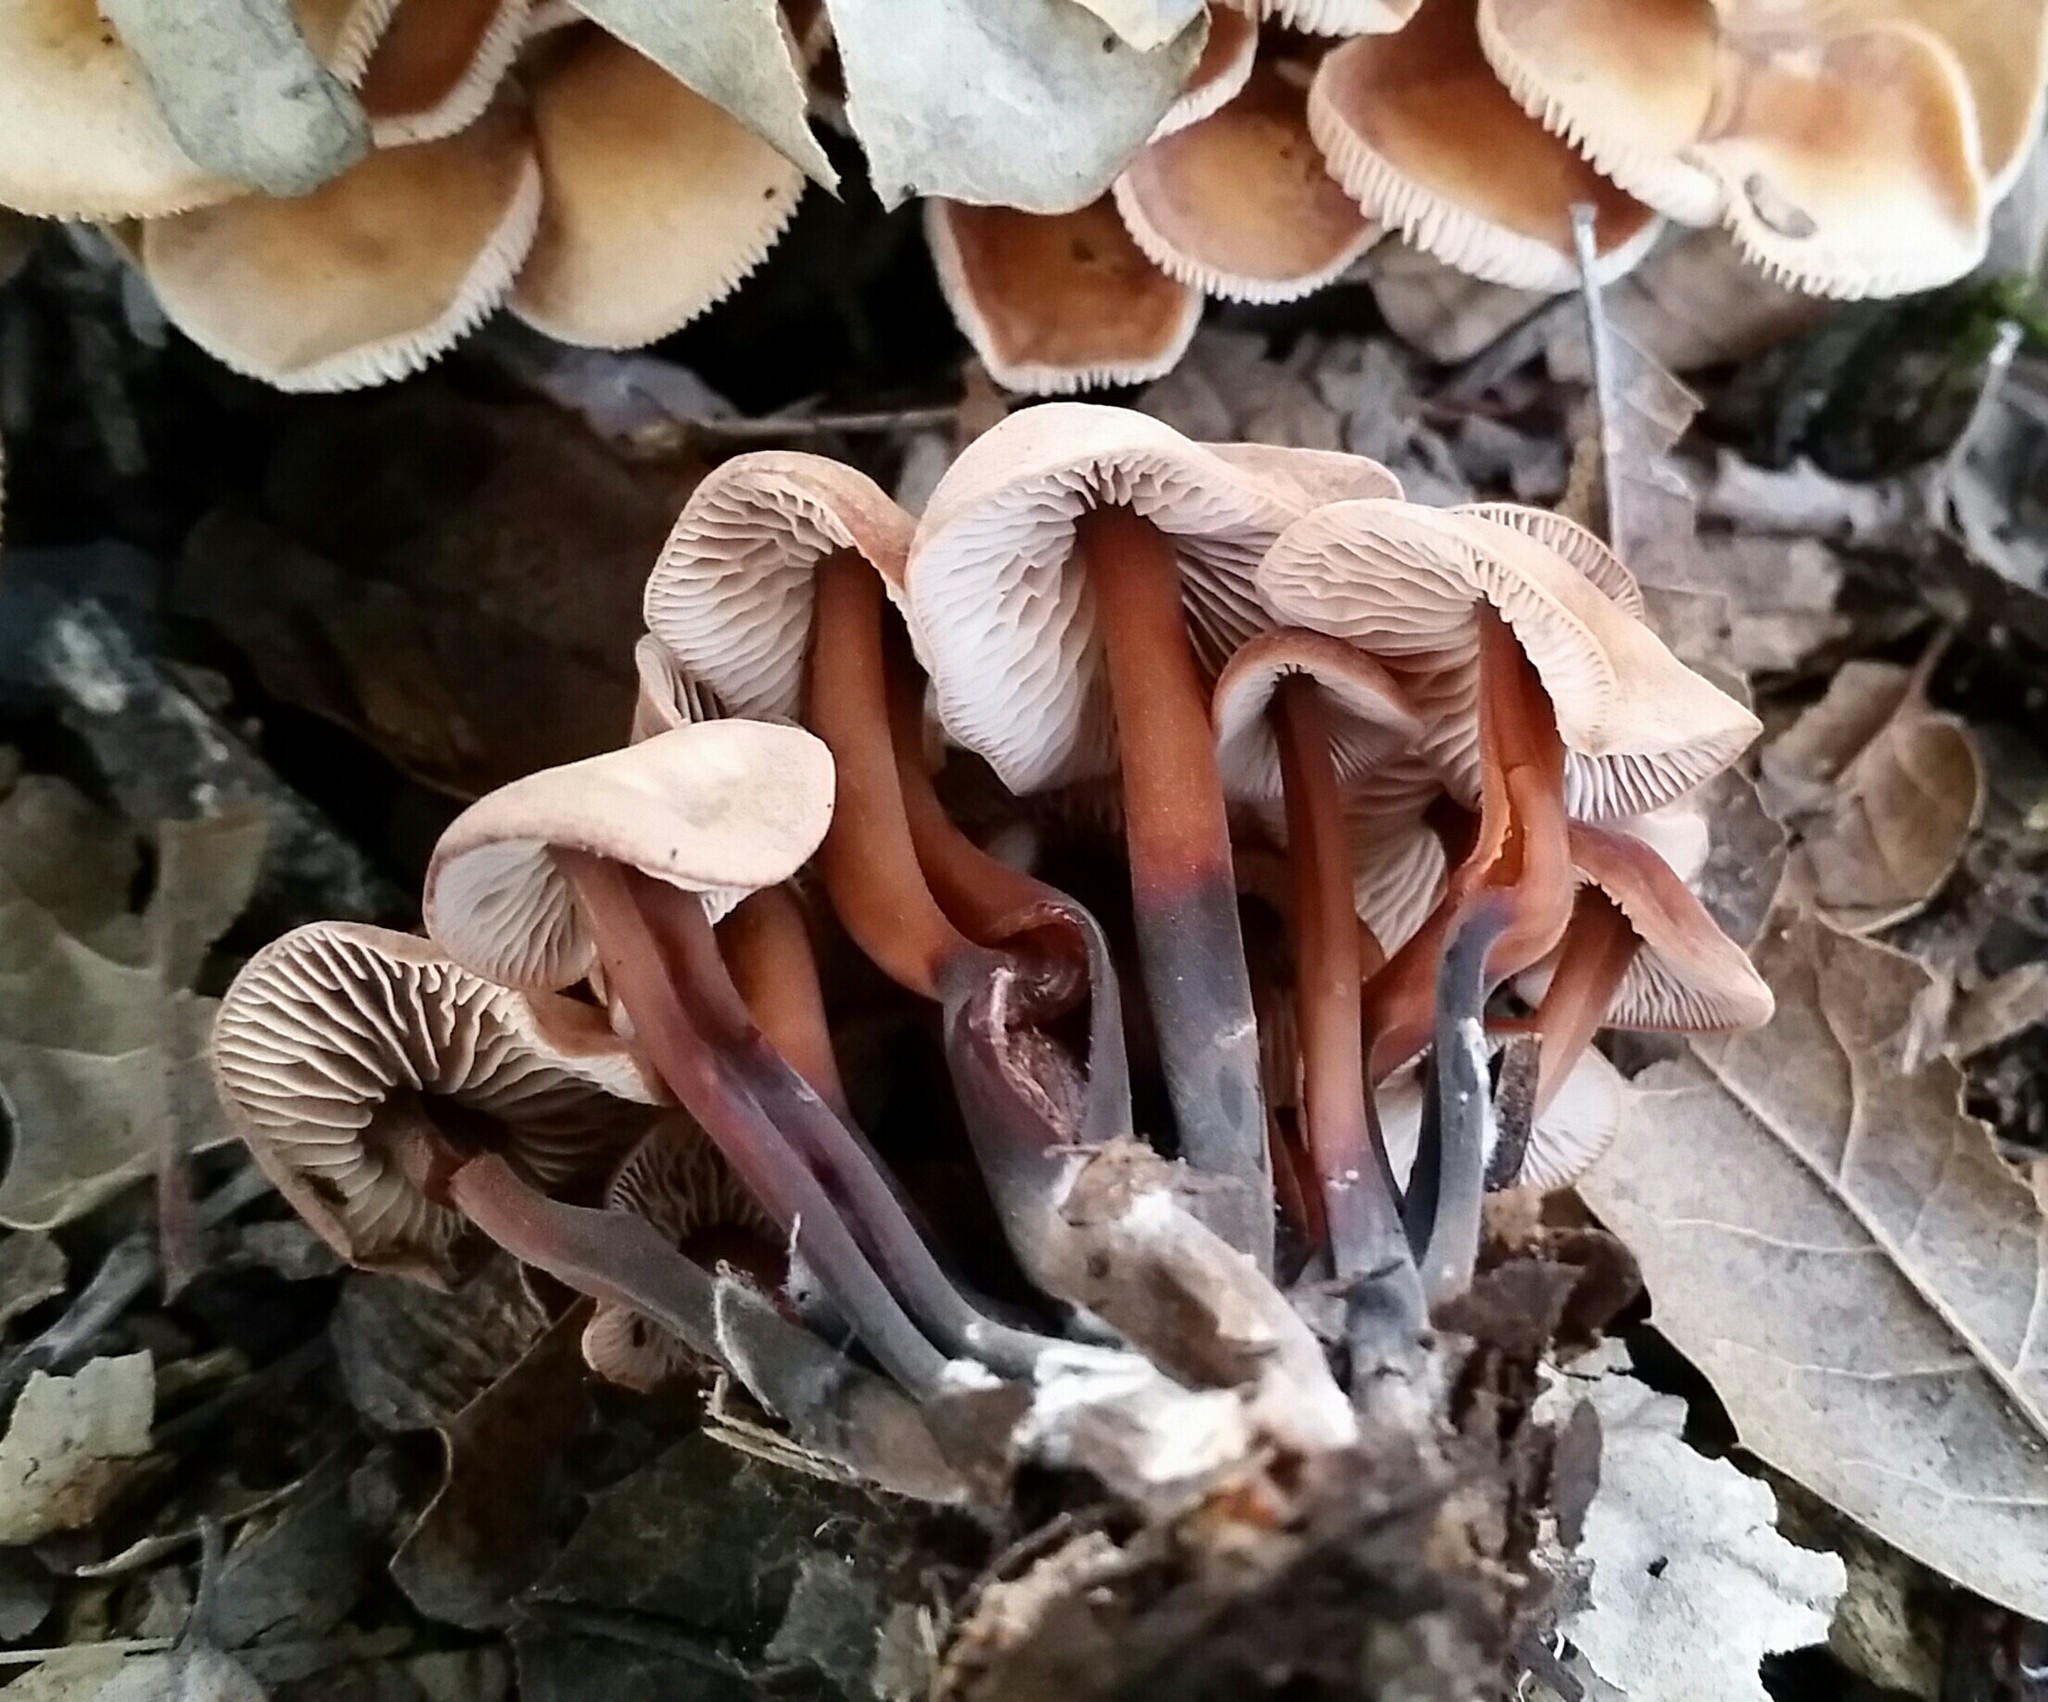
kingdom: Fungi
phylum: Basidiomycota
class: Agaricomycetes
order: Agaricales
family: Omphalotaceae
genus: Gymnopus
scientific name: Gymnopus brassicolens
